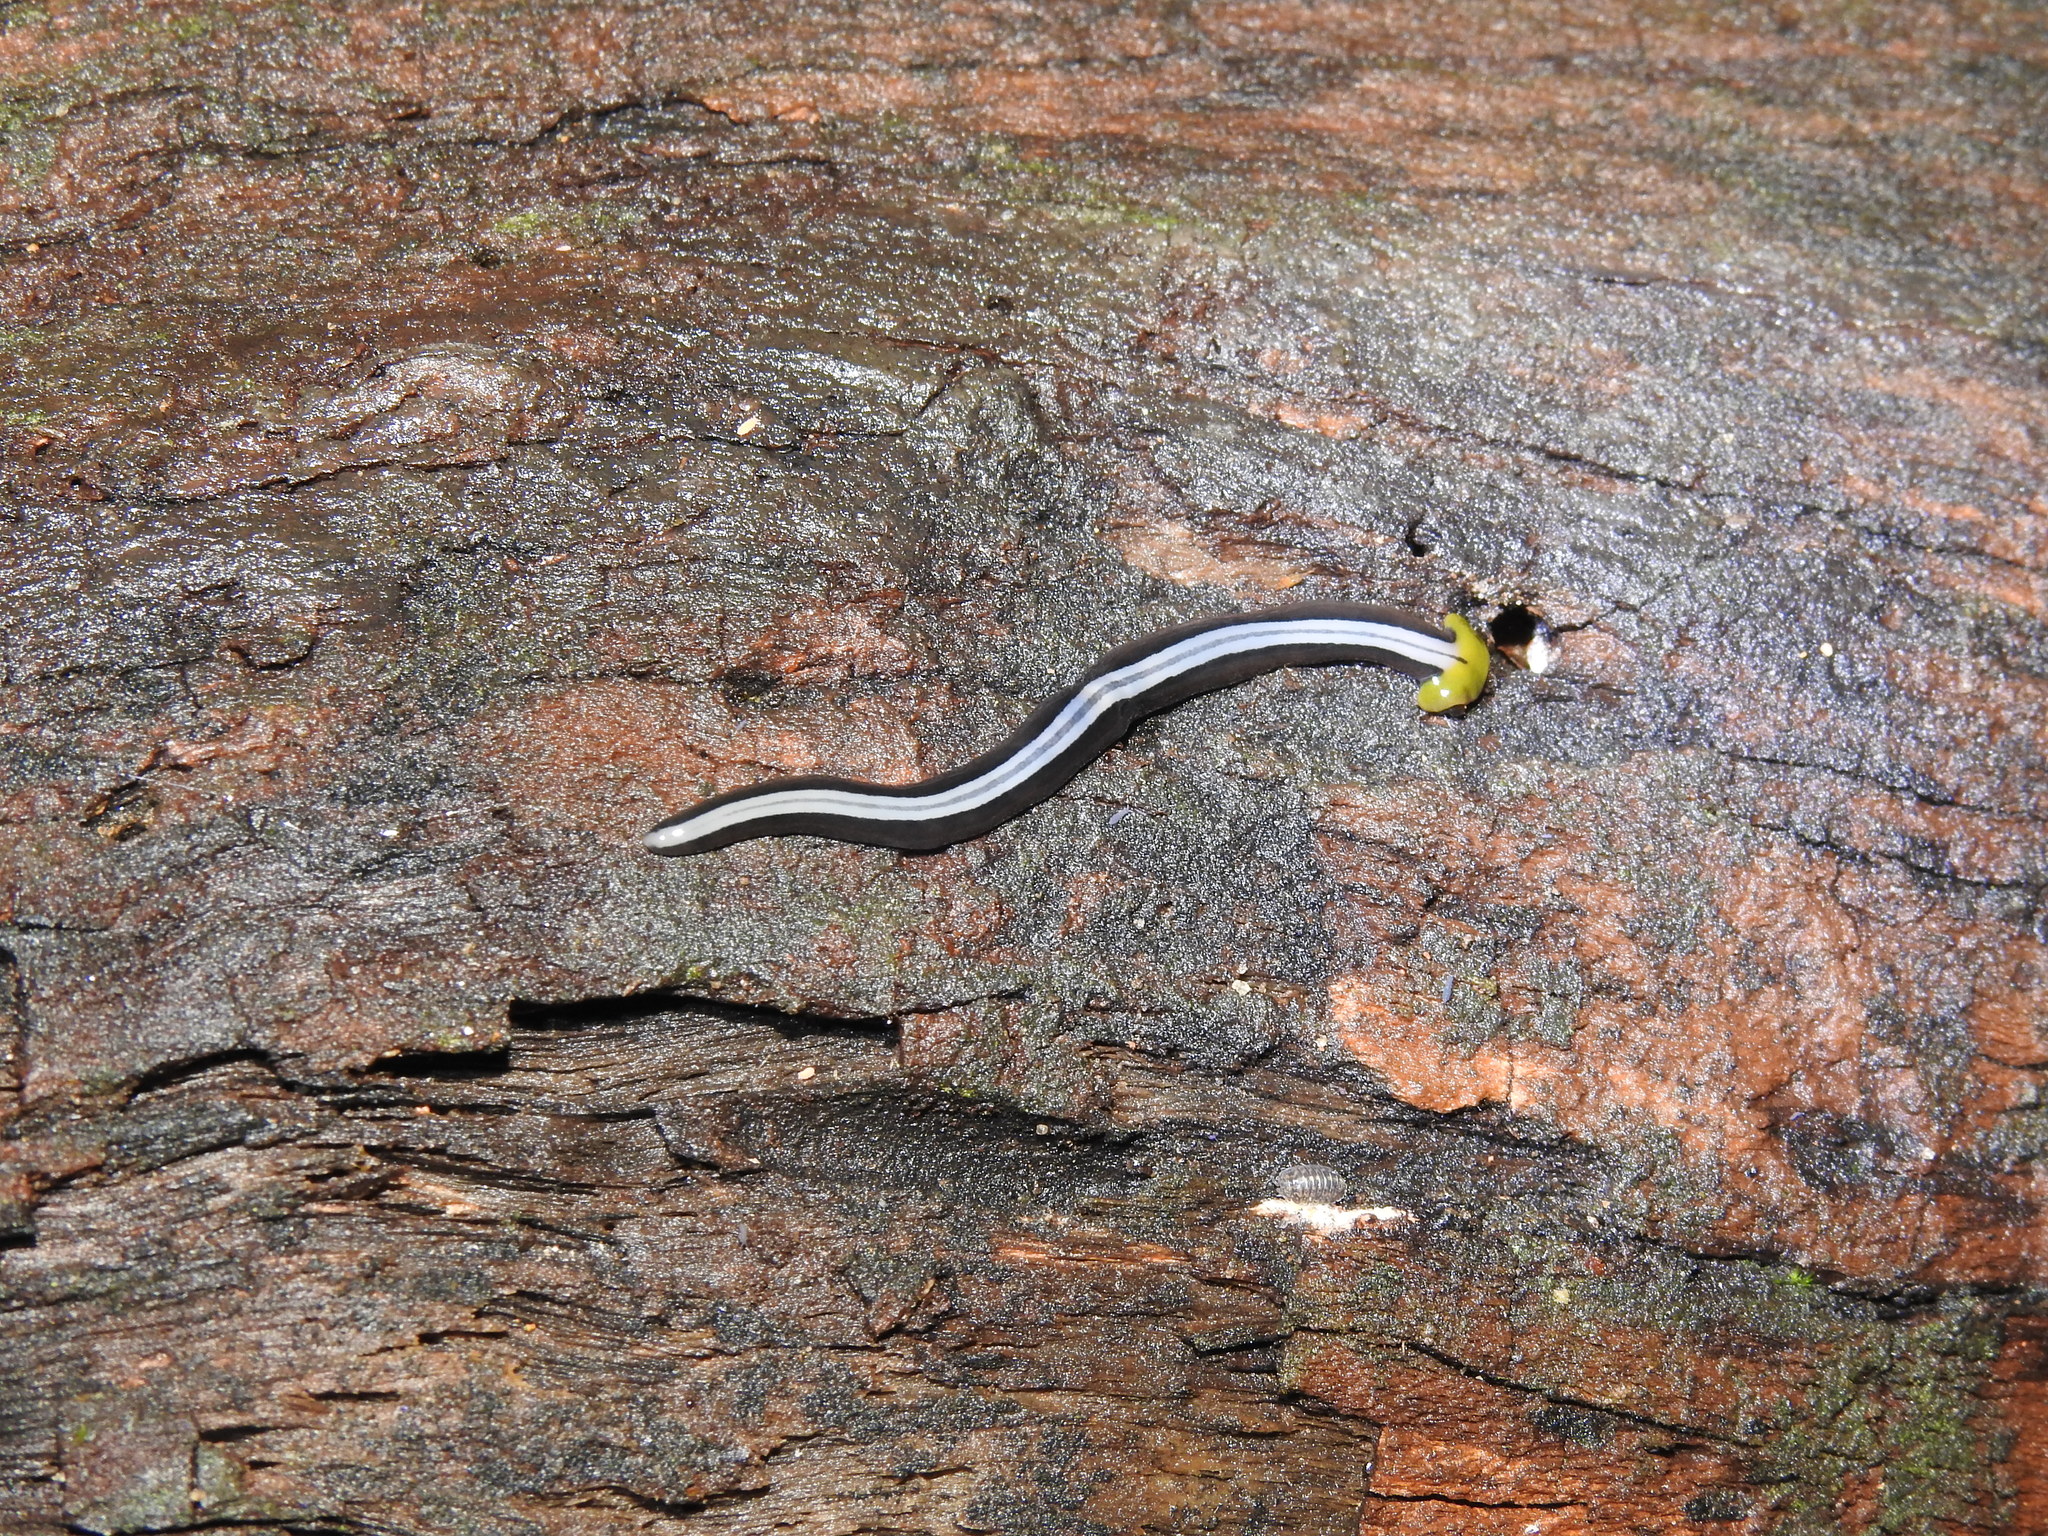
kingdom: Animalia
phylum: Platyhelminthes
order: Tricladida
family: Geoplanidae
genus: Humbertium
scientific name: Humbertium core
